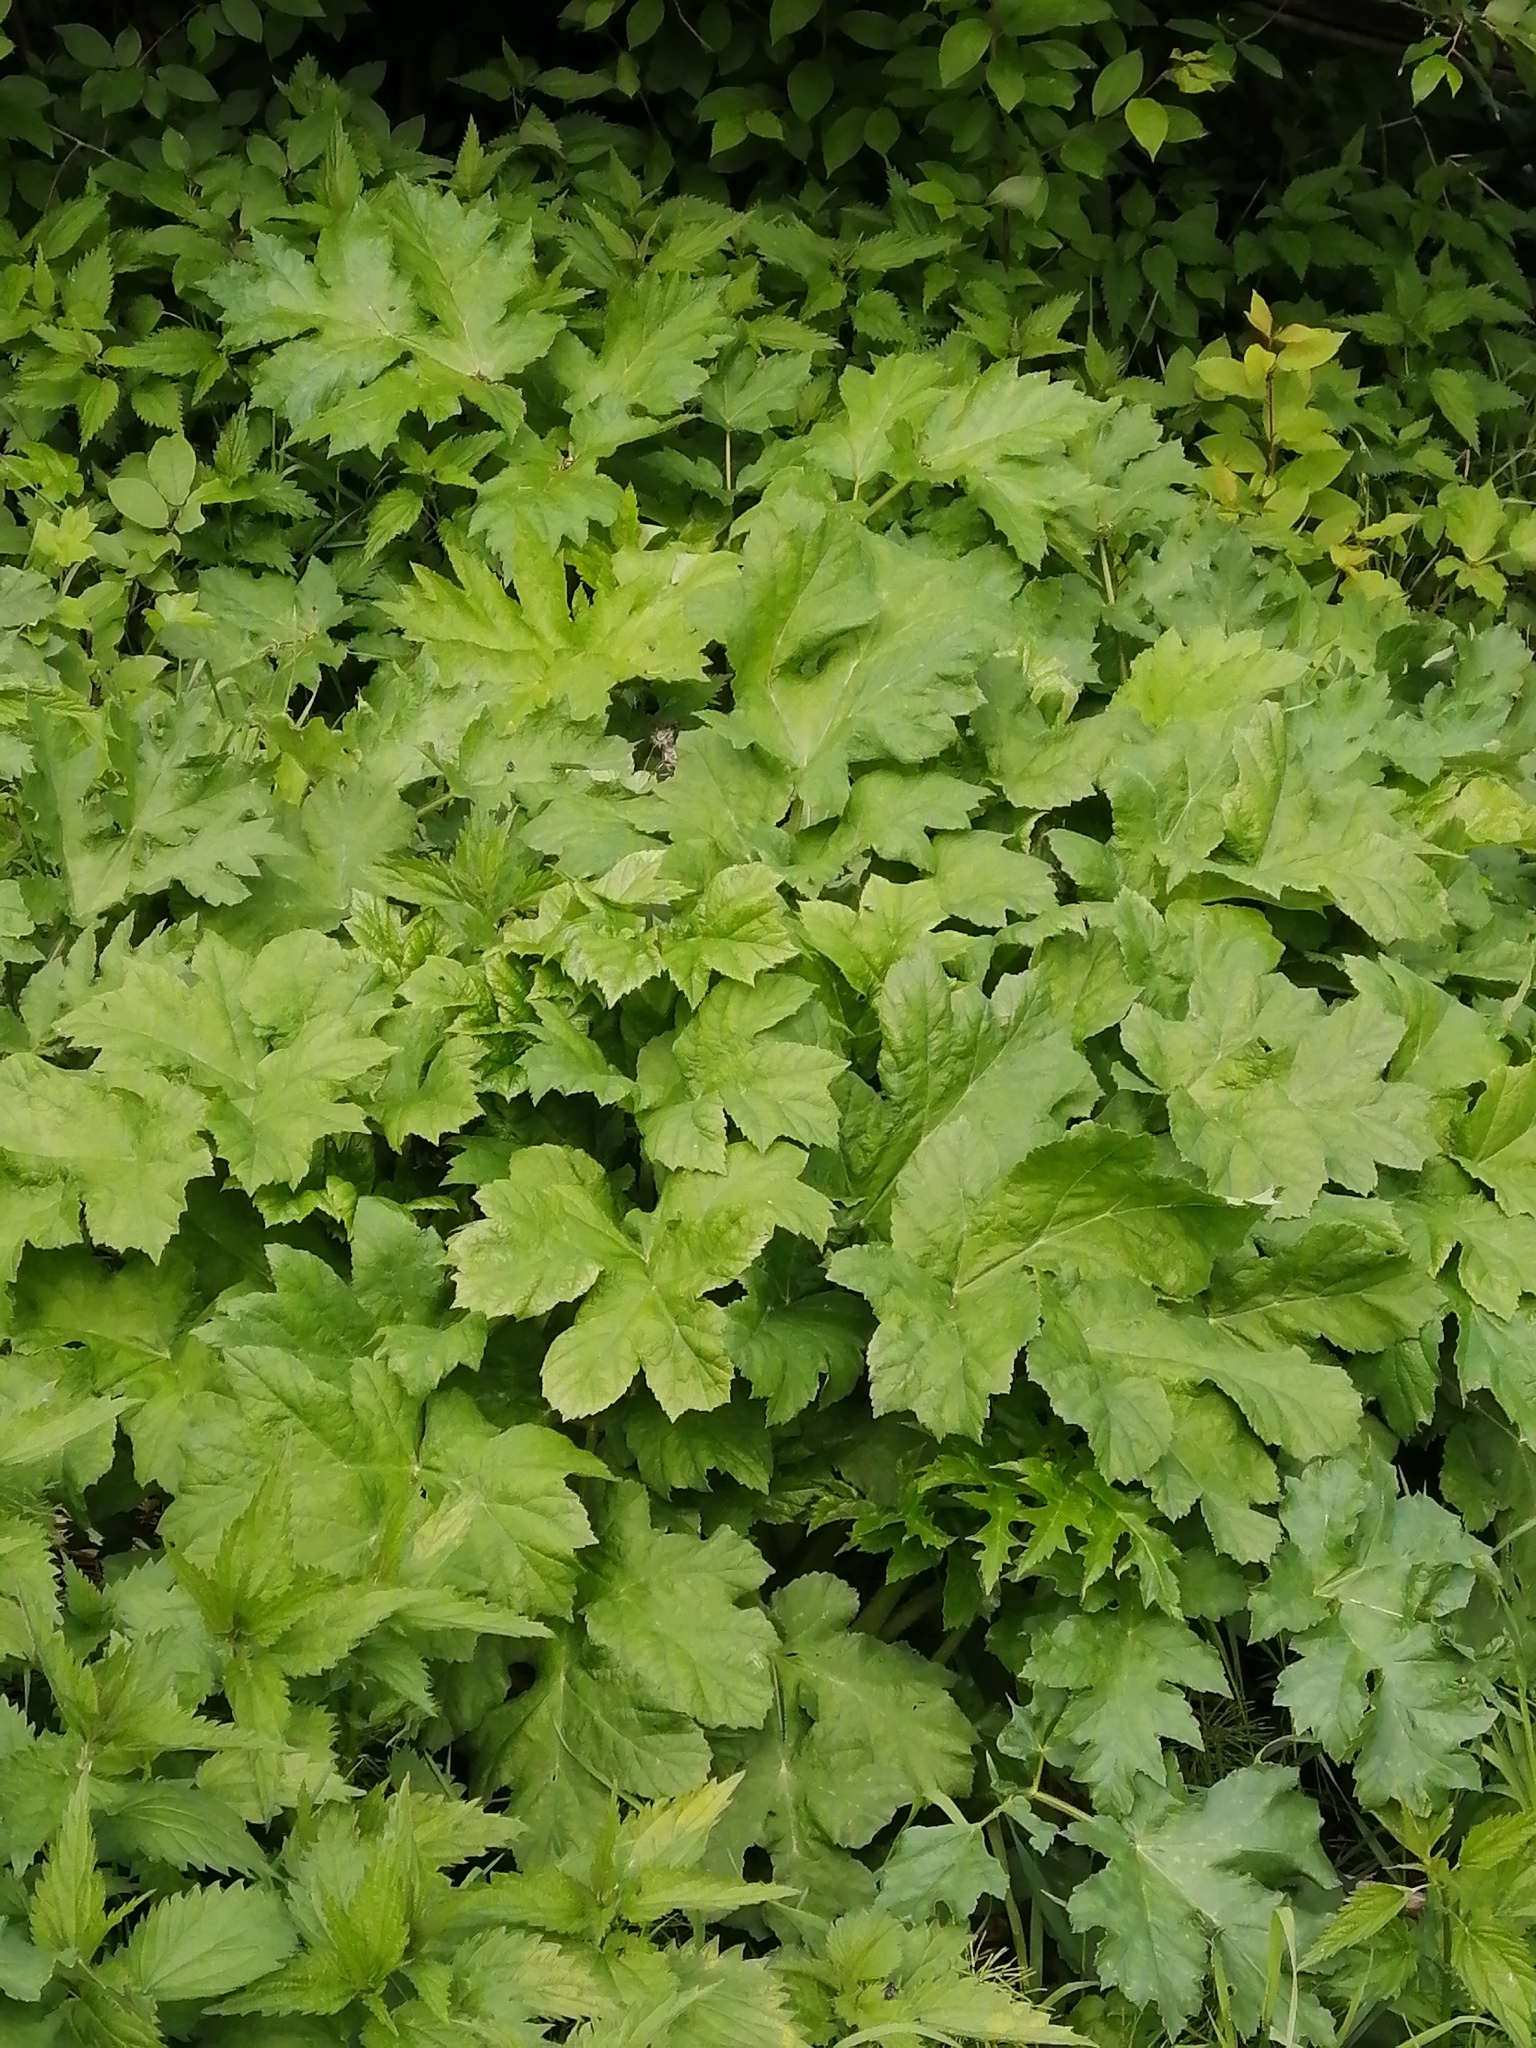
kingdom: Plantae
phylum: Tracheophyta
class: Magnoliopsida
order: Apiales
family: Apiaceae
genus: Heracleum
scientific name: Heracleum dissectum
